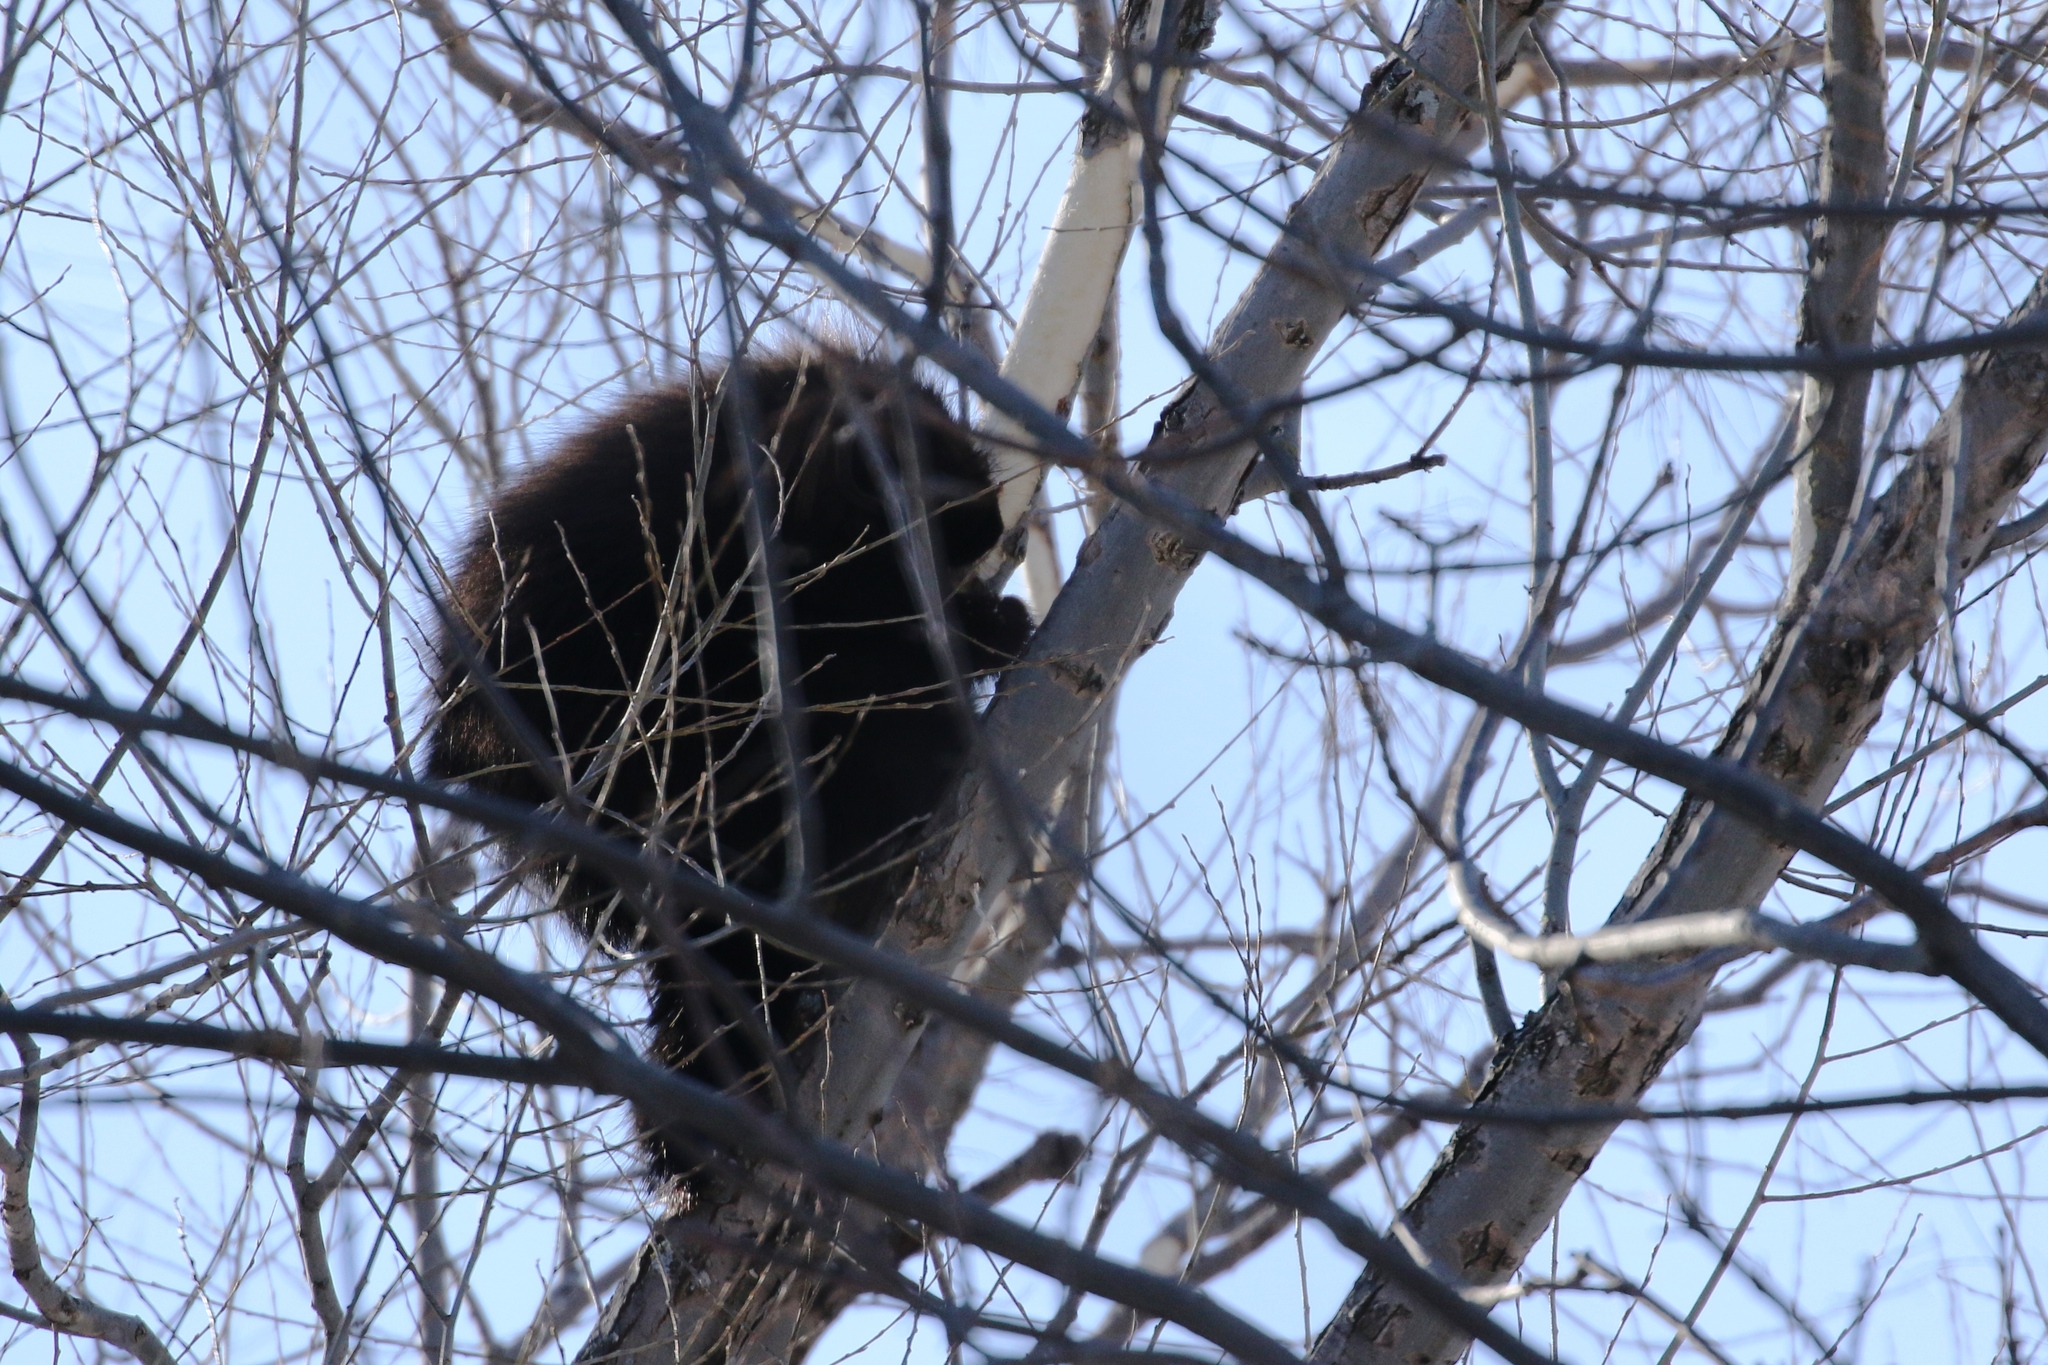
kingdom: Animalia
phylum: Chordata
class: Mammalia
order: Rodentia
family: Erethizontidae
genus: Erethizon
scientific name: Erethizon dorsatus
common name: North american porcupine
